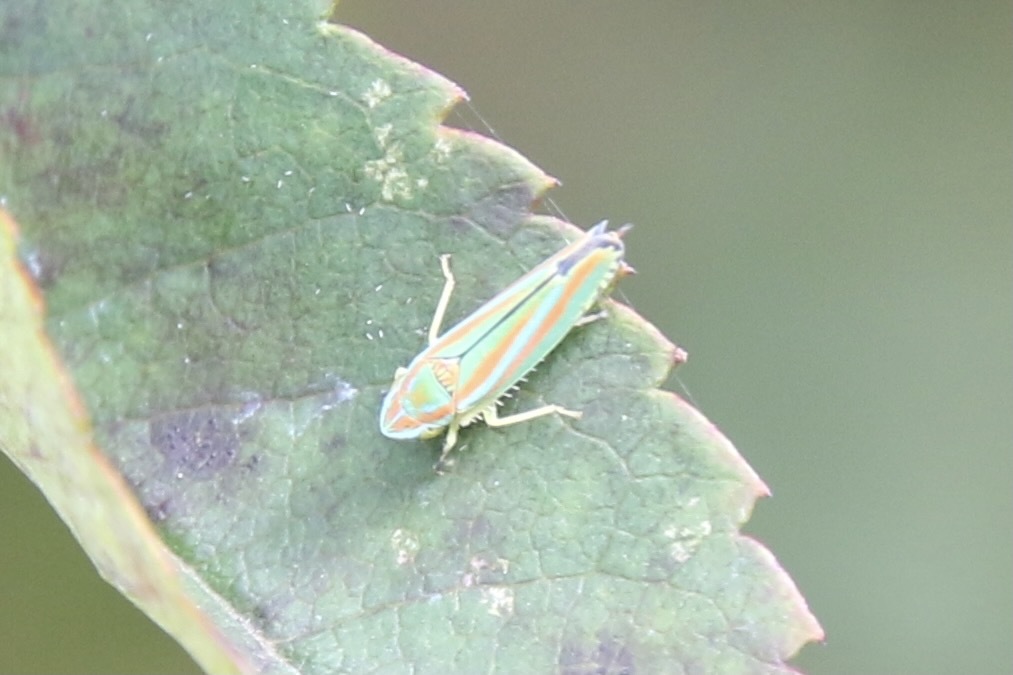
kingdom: Animalia
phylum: Arthropoda
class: Insecta
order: Hemiptera
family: Cicadellidae
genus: Graphocephala
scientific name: Graphocephala versuta
